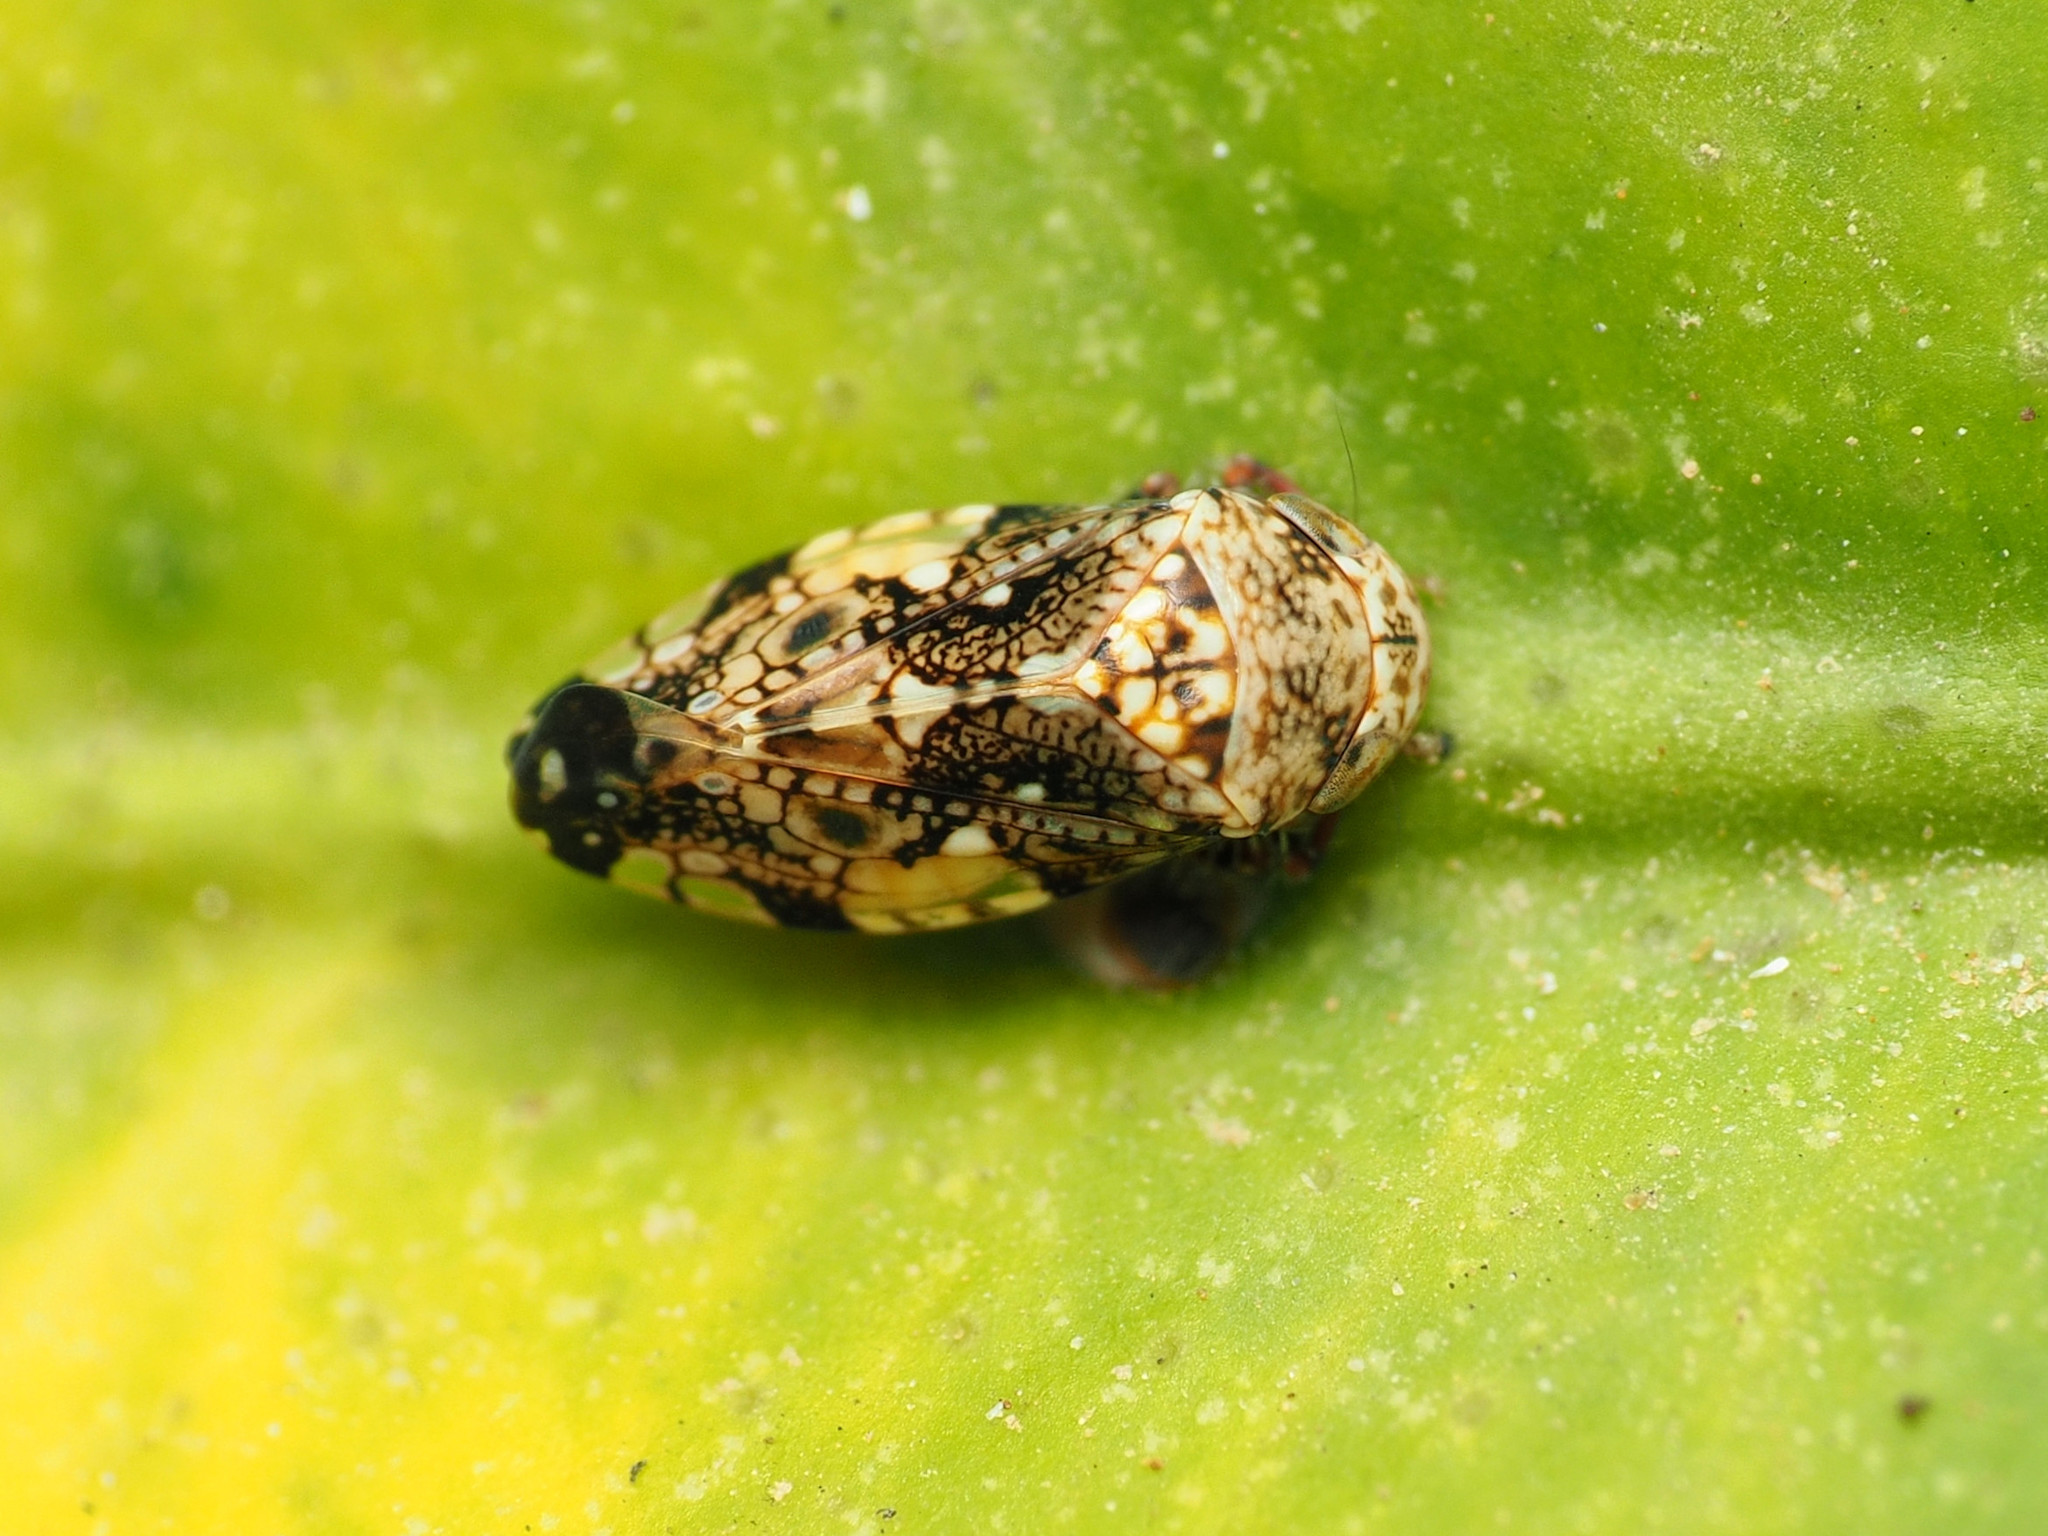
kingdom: Animalia
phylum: Arthropoda
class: Insecta
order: Hemiptera
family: Cicadellidae
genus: Penthimiola
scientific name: Penthimiola bella
